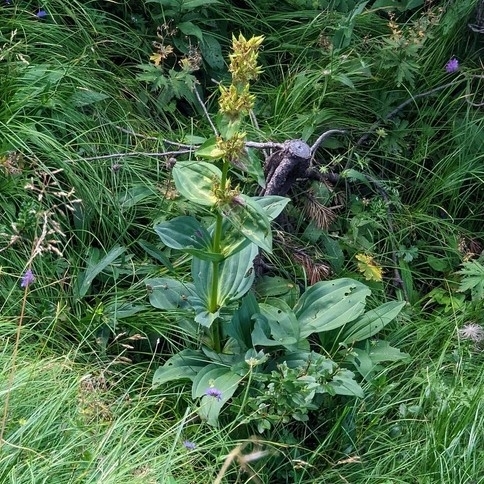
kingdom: Plantae
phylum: Tracheophyta
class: Magnoliopsida
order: Gentianales
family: Gentianaceae
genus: Gentiana
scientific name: Gentiana lutea
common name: Great yellow gentian
